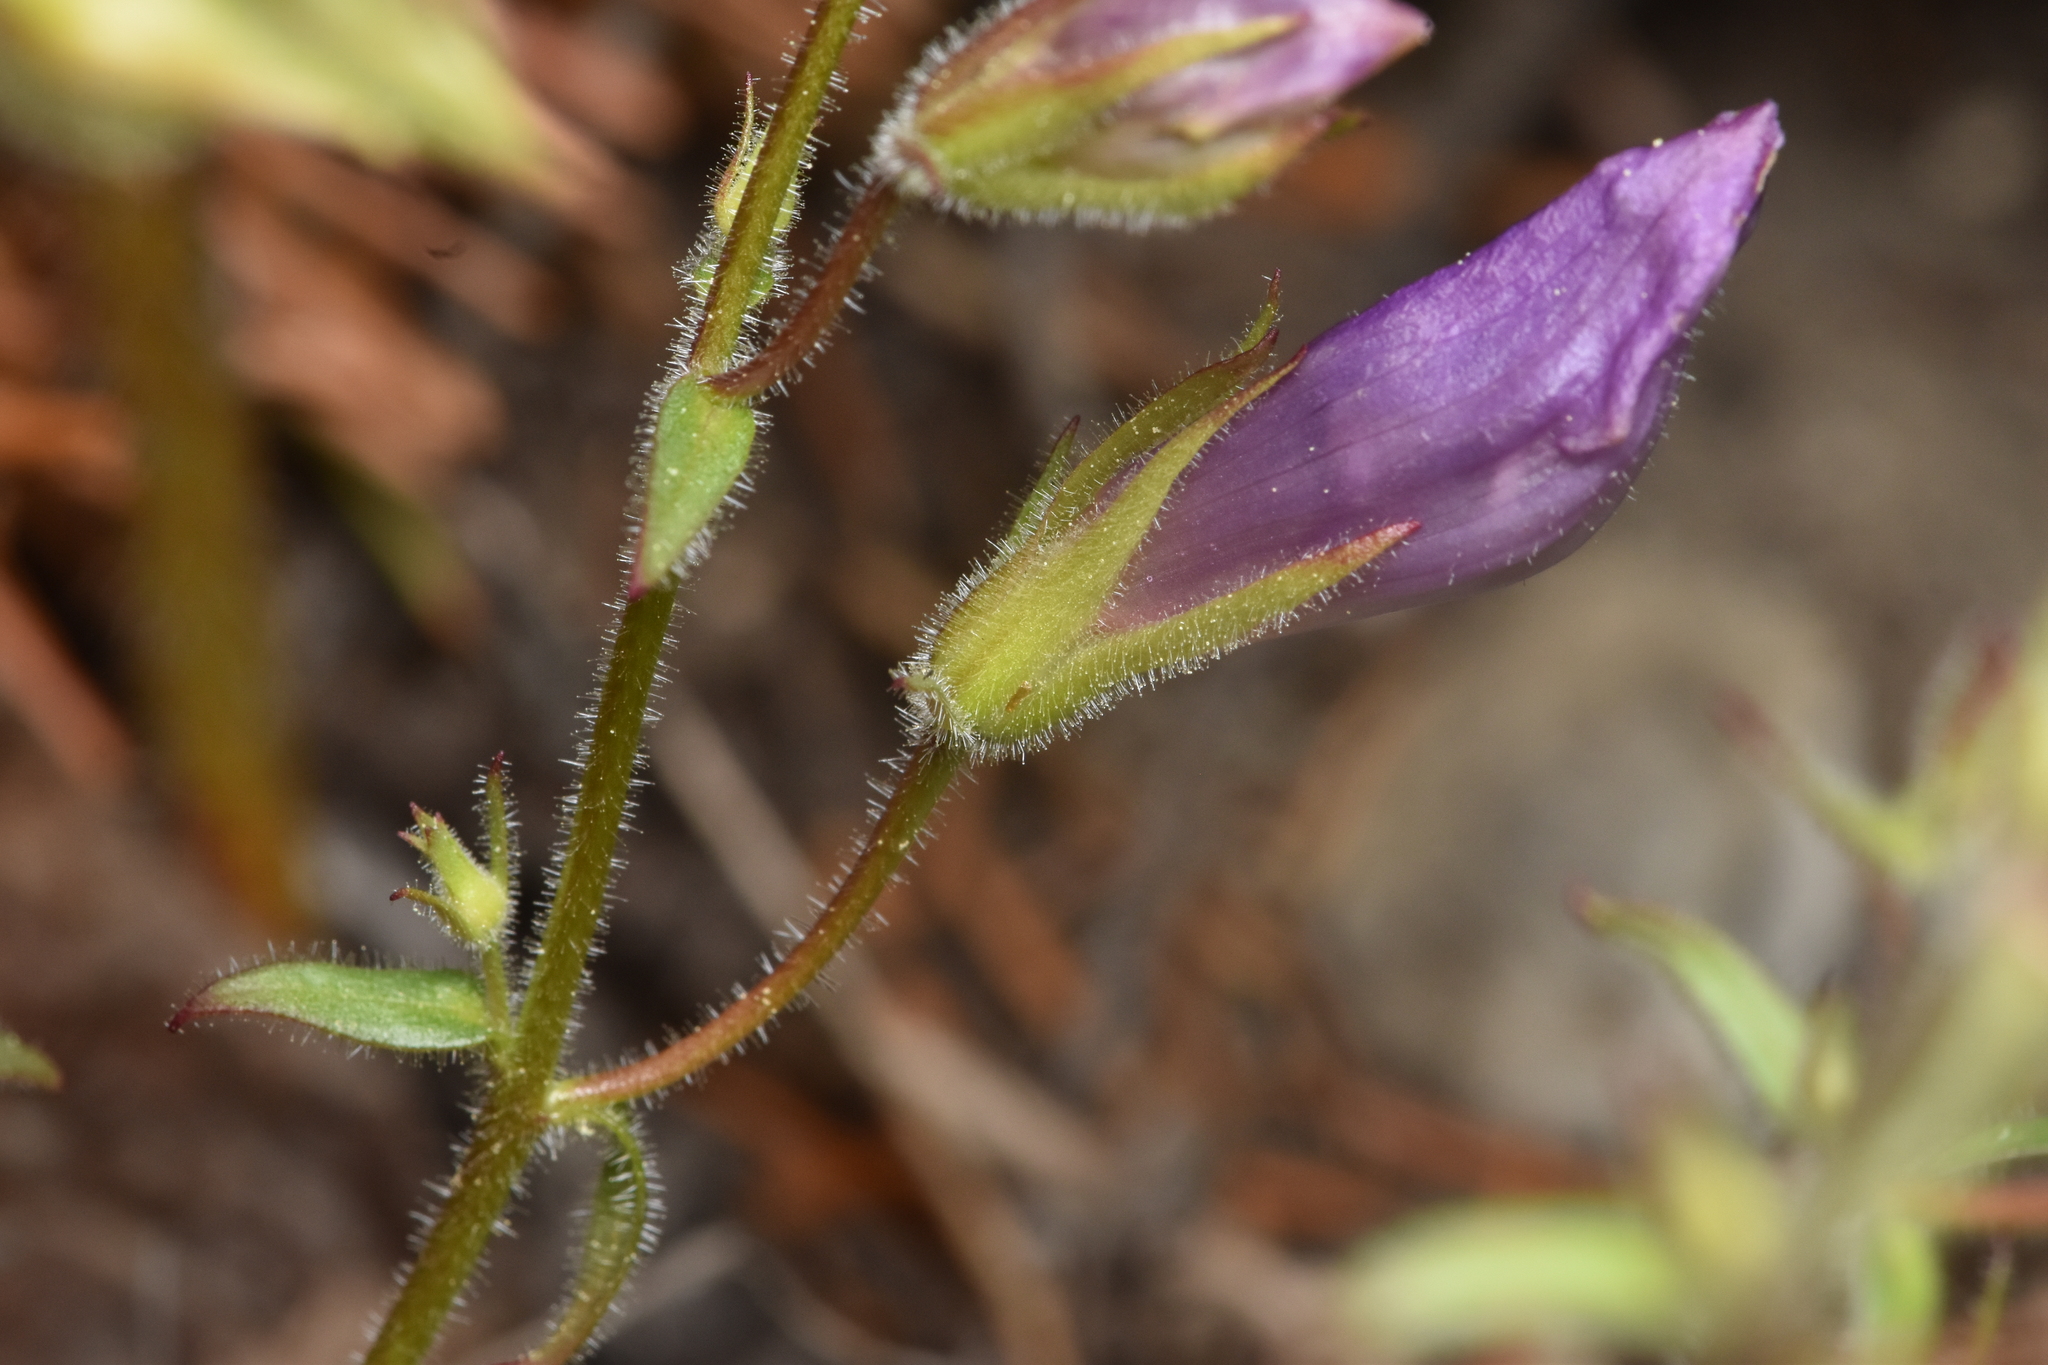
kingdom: Plantae
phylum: Tracheophyta
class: Magnoliopsida
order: Lamiales
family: Plantaginaceae
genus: Penstemon
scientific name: Penstemon fruticosus
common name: Bush penstemon
